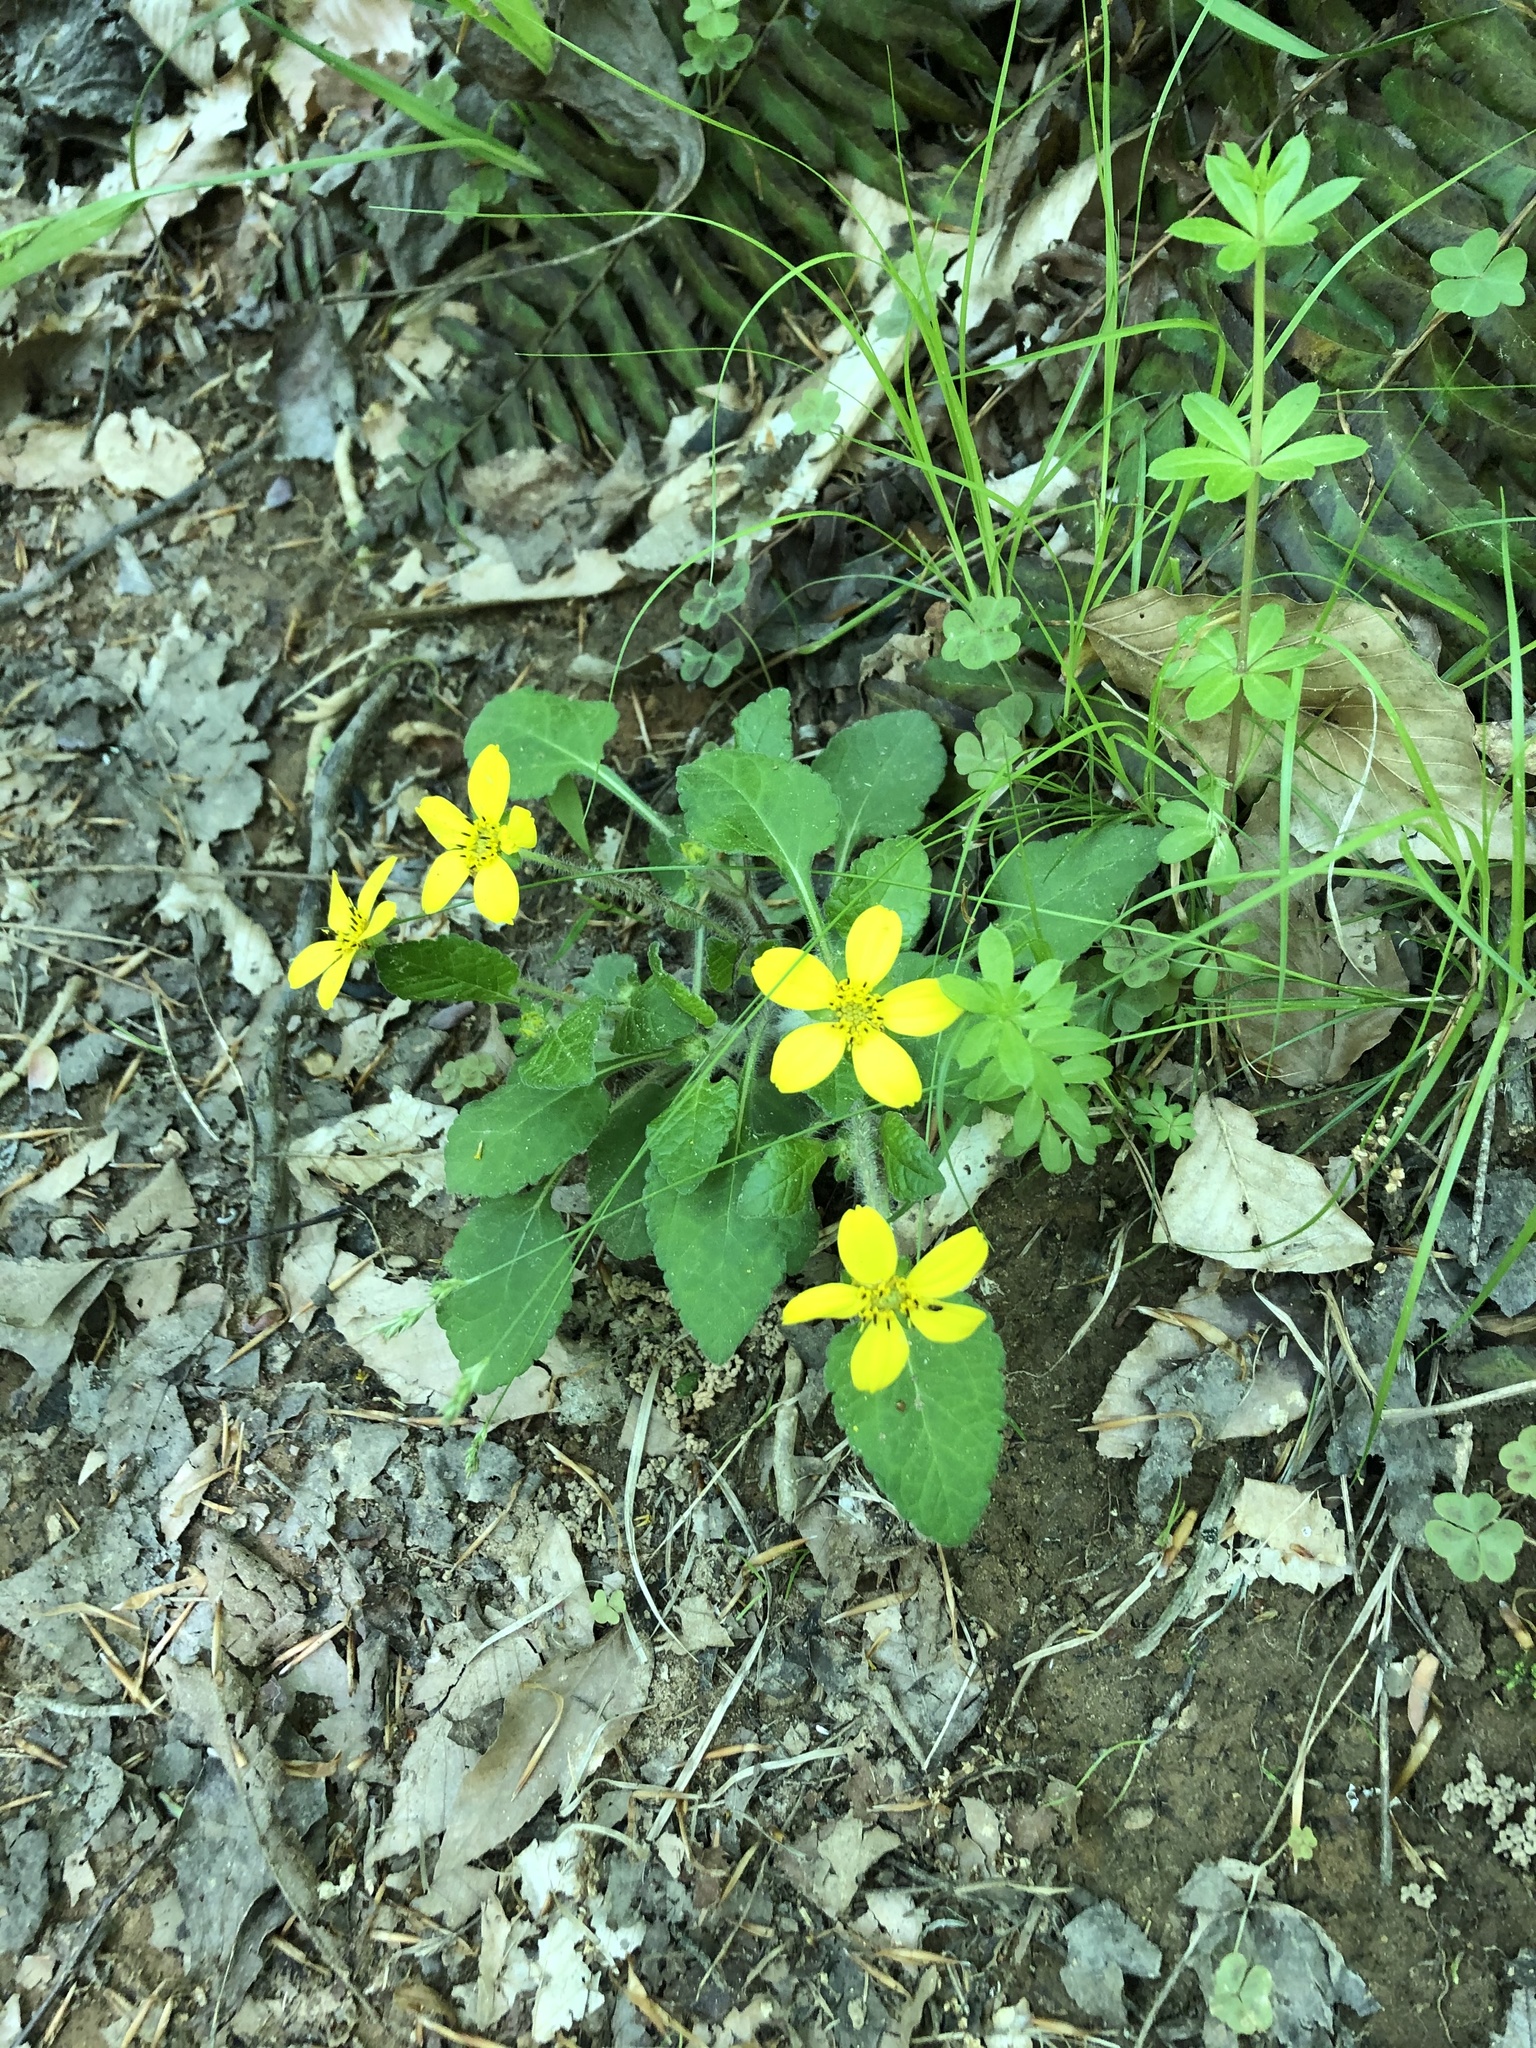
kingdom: Plantae
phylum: Tracheophyta
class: Magnoliopsida
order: Asterales
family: Asteraceae
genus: Chrysogonum
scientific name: Chrysogonum virginianum
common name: Golden-knee
